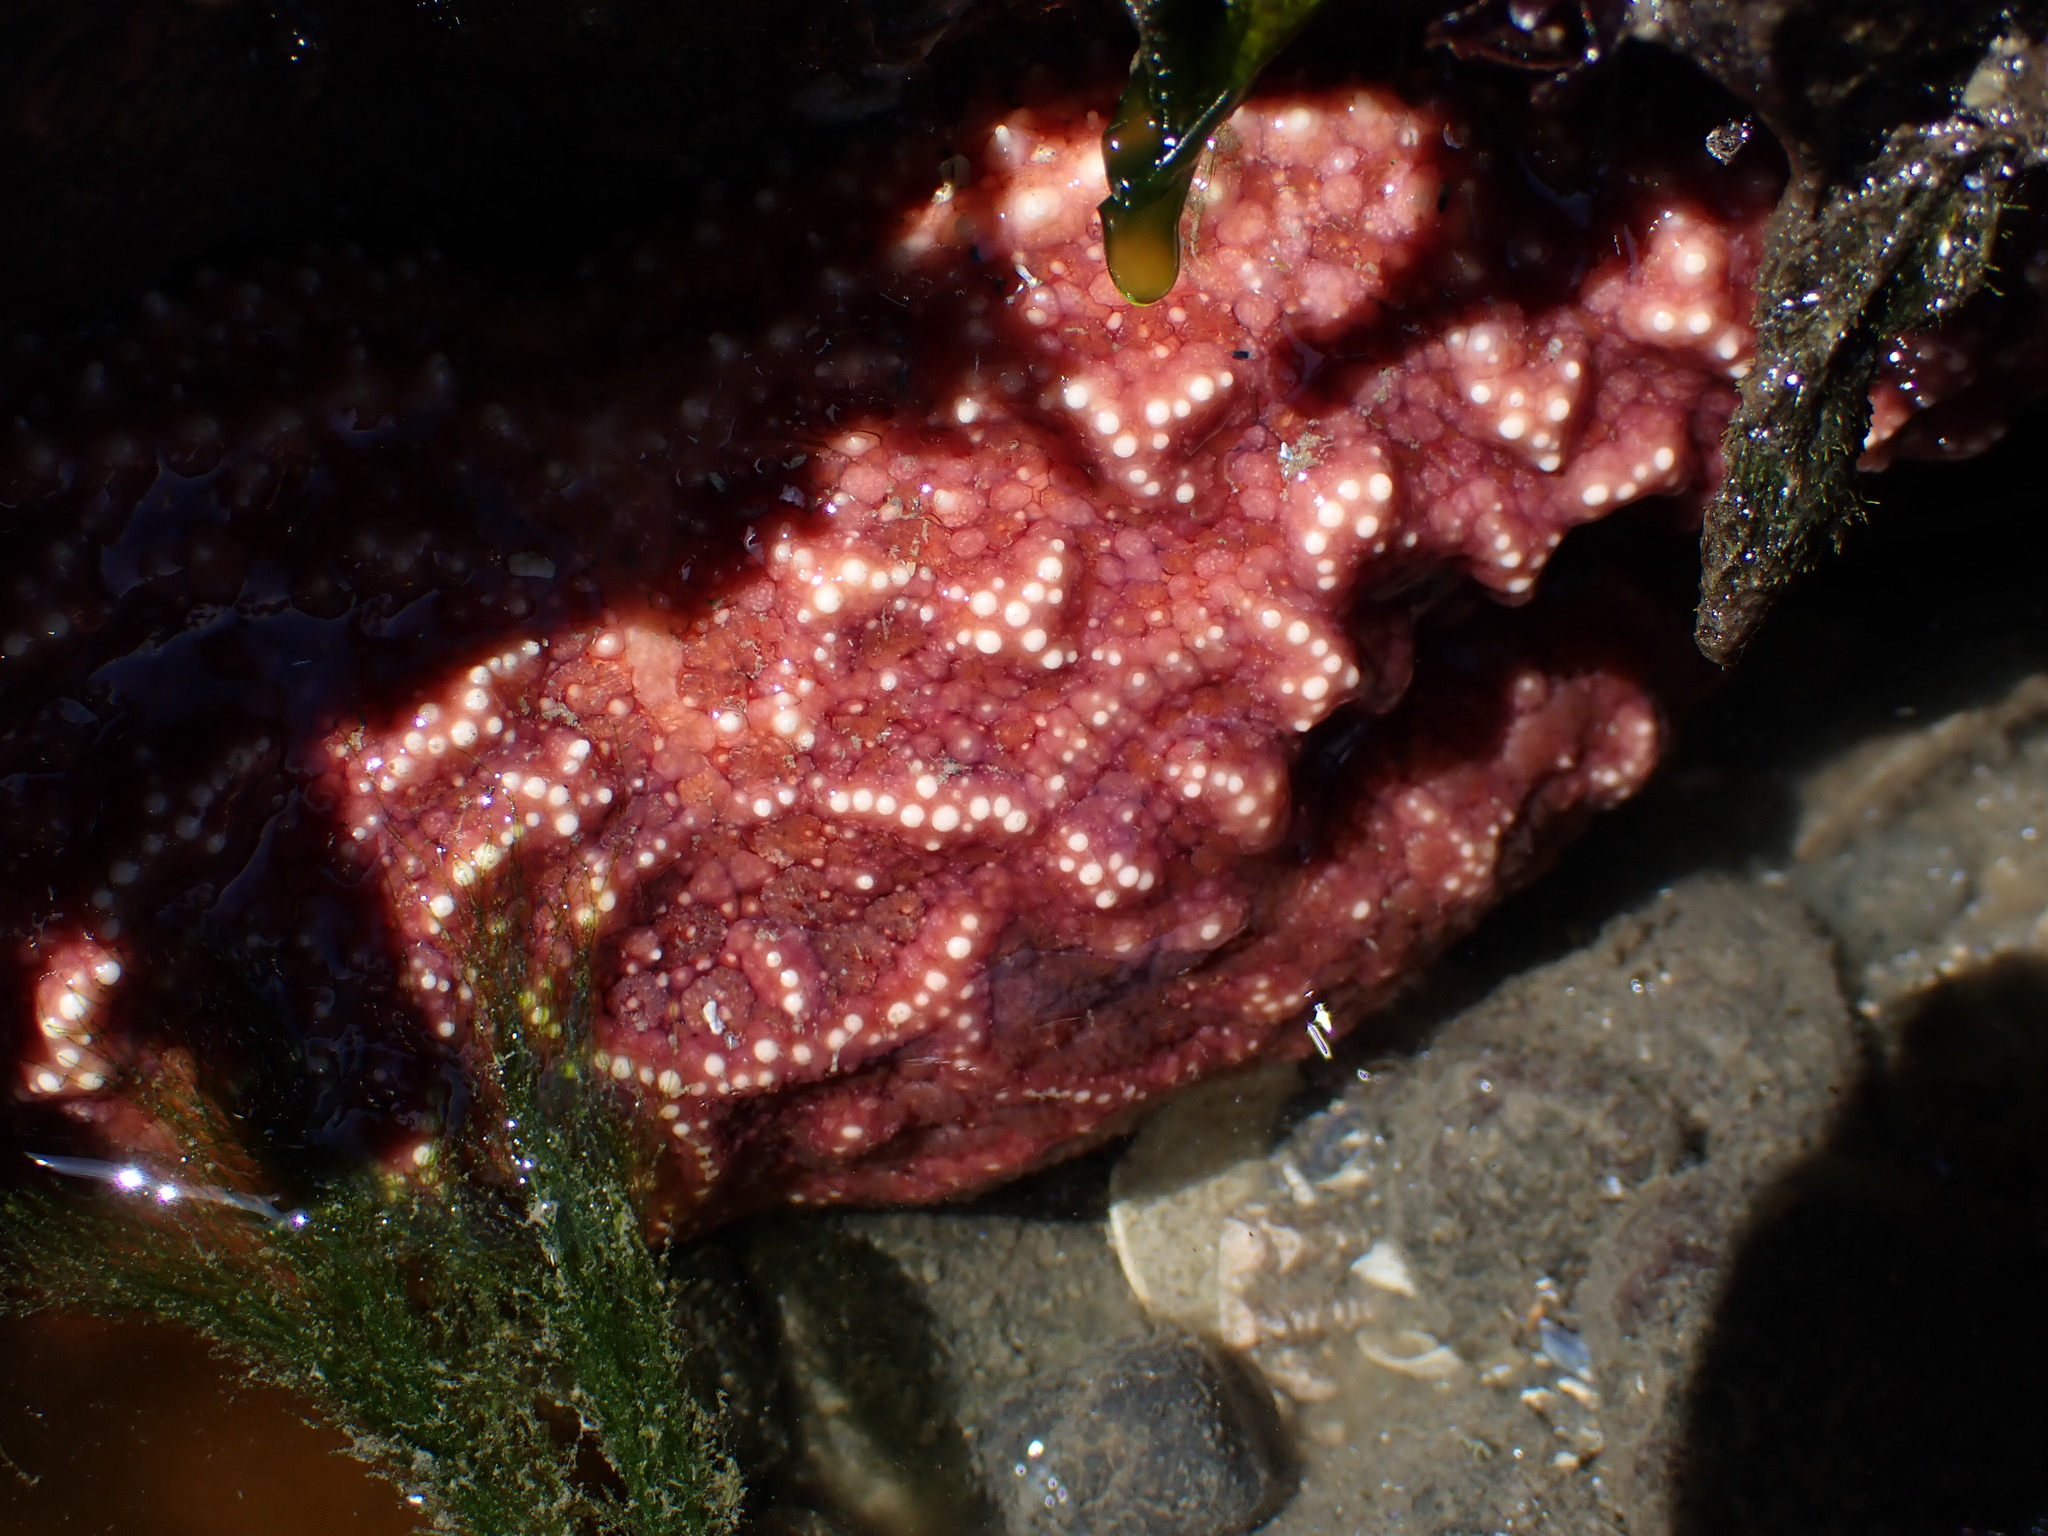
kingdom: Animalia
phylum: Echinodermata
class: Asteroidea
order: Forcipulatida
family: Asteriidae
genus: Pisaster
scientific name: Pisaster ochraceus
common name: Ochre stars
